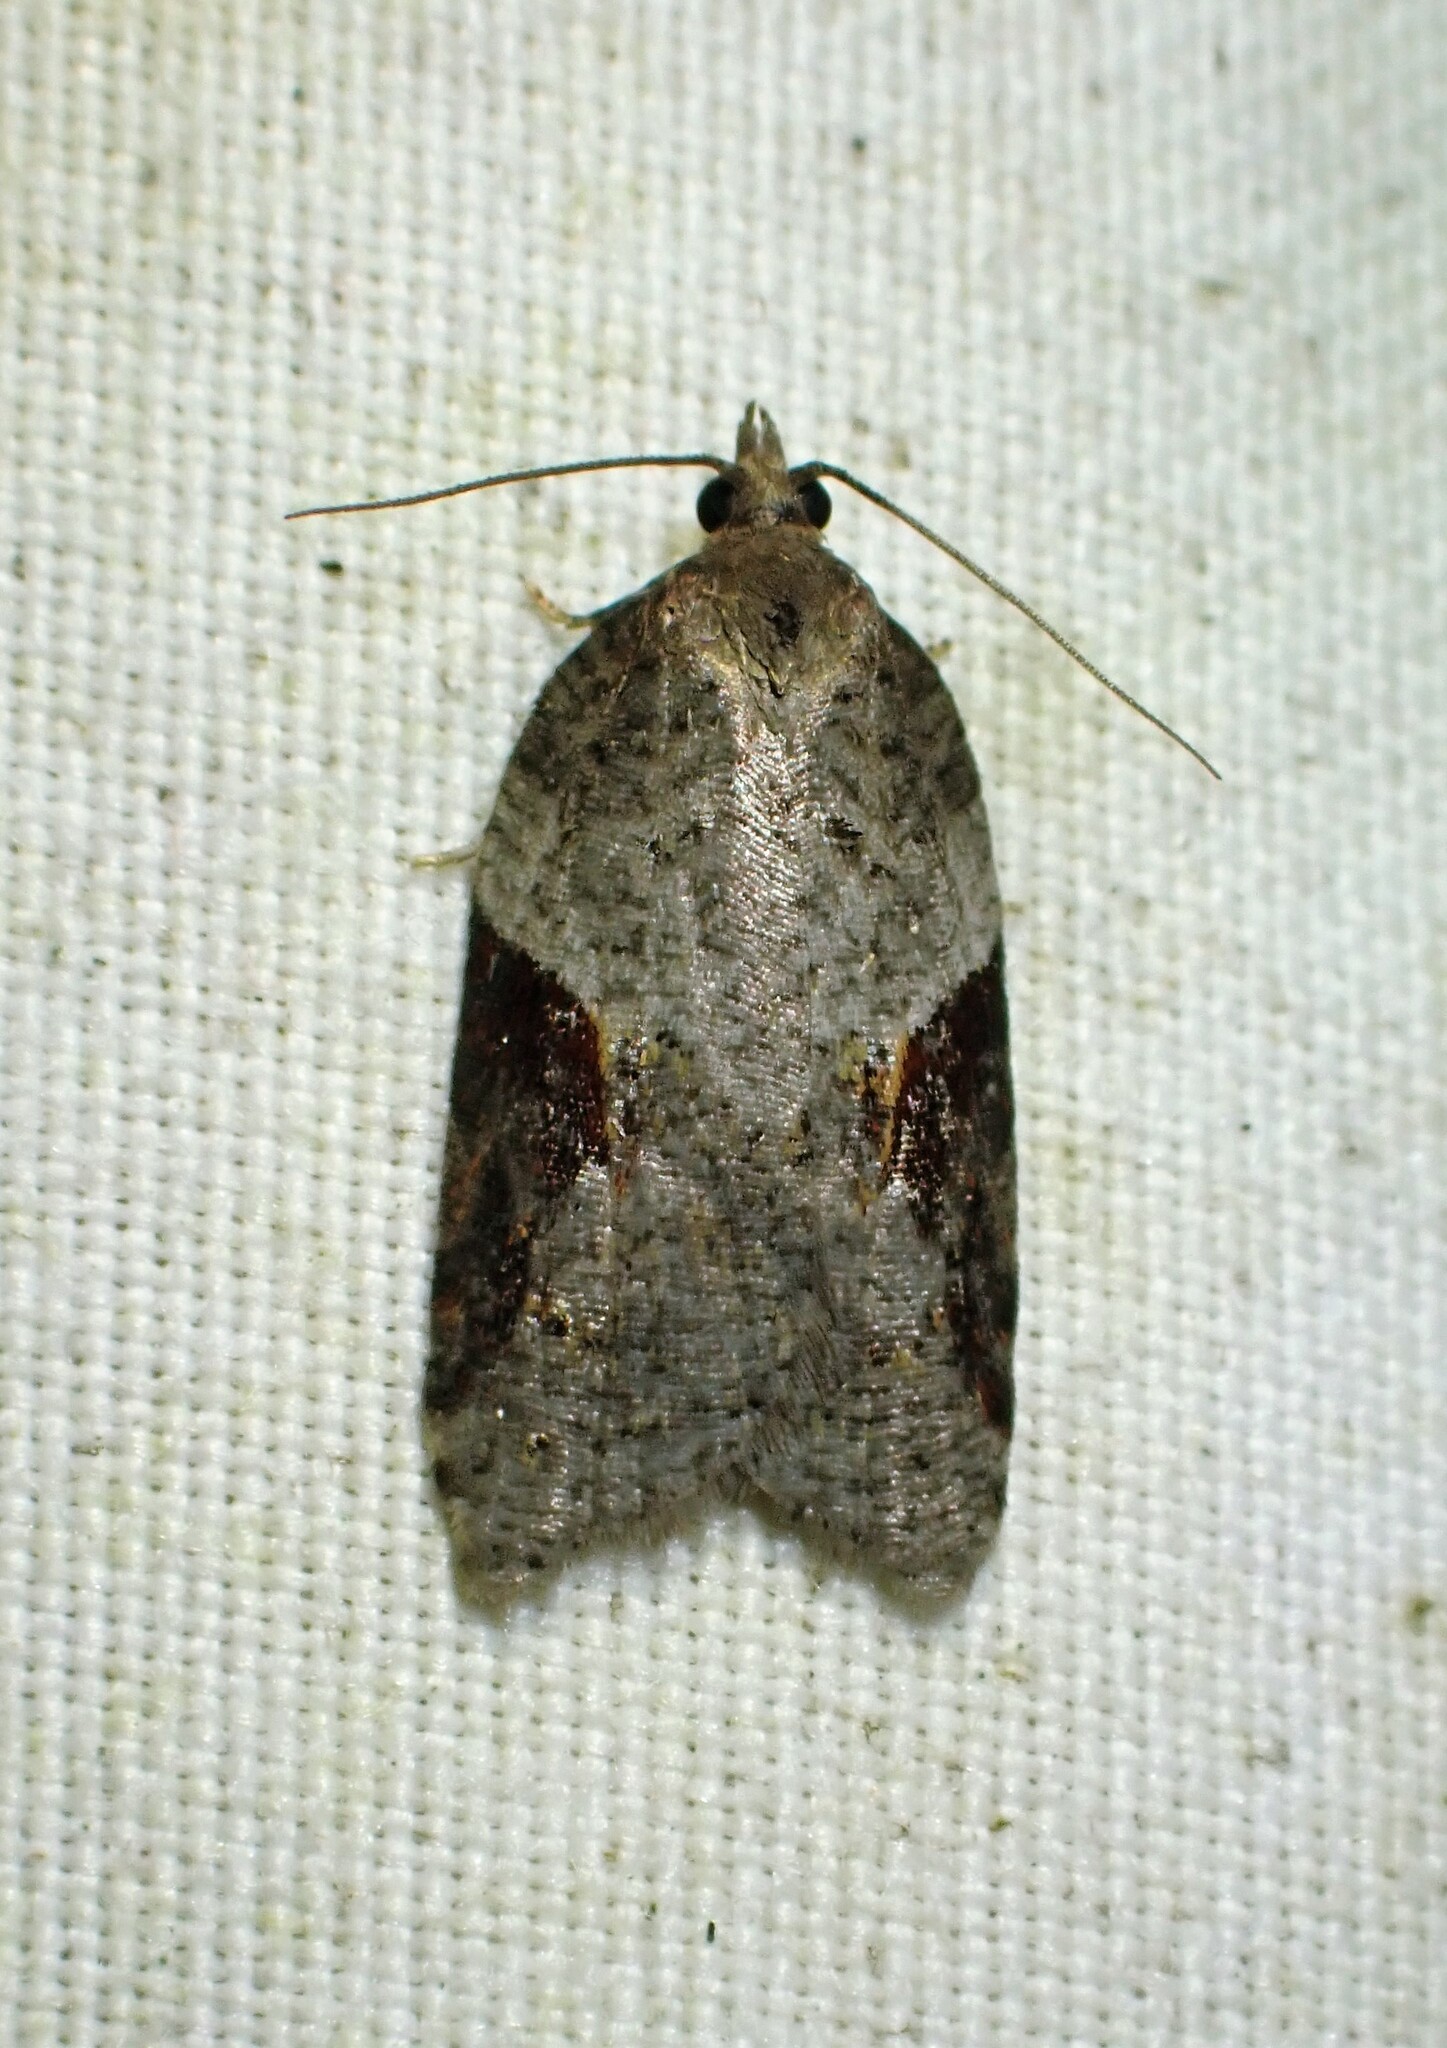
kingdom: Animalia
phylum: Arthropoda
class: Insecta
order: Lepidoptera
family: Tortricidae
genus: Acleris
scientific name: Acleris macdunnoughi
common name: Macdunnough's acleris
